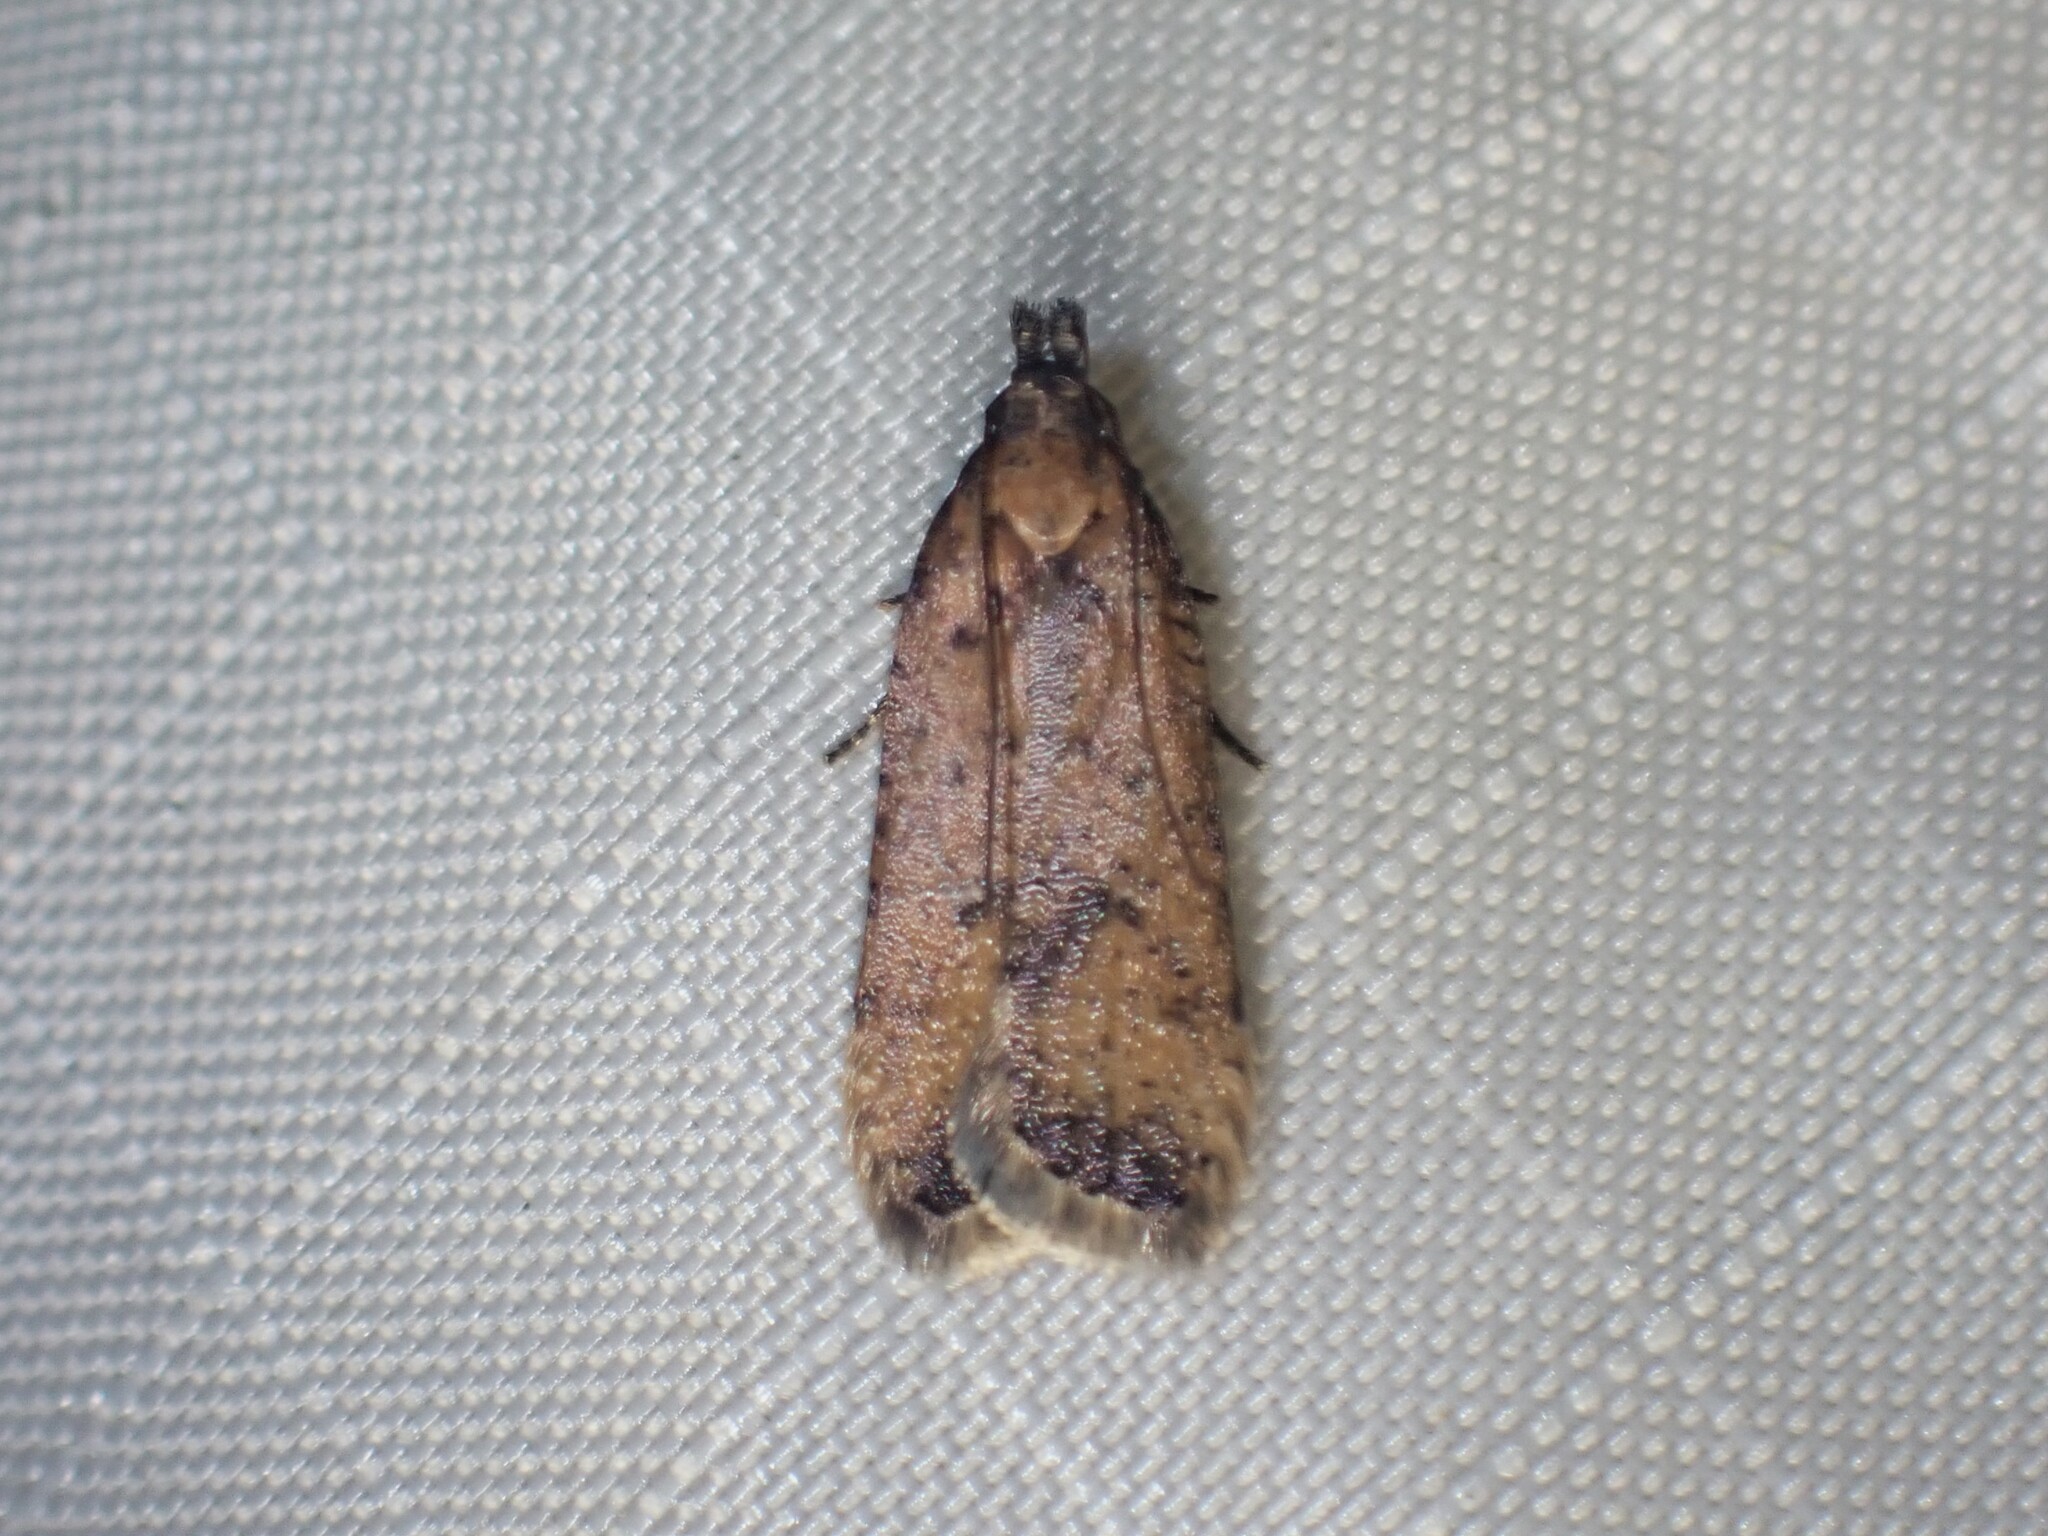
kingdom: Animalia
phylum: Arthropoda
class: Insecta
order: Lepidoptera
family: Gelechiidae
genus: Dichomeris
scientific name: Dichomeris vacciniella
